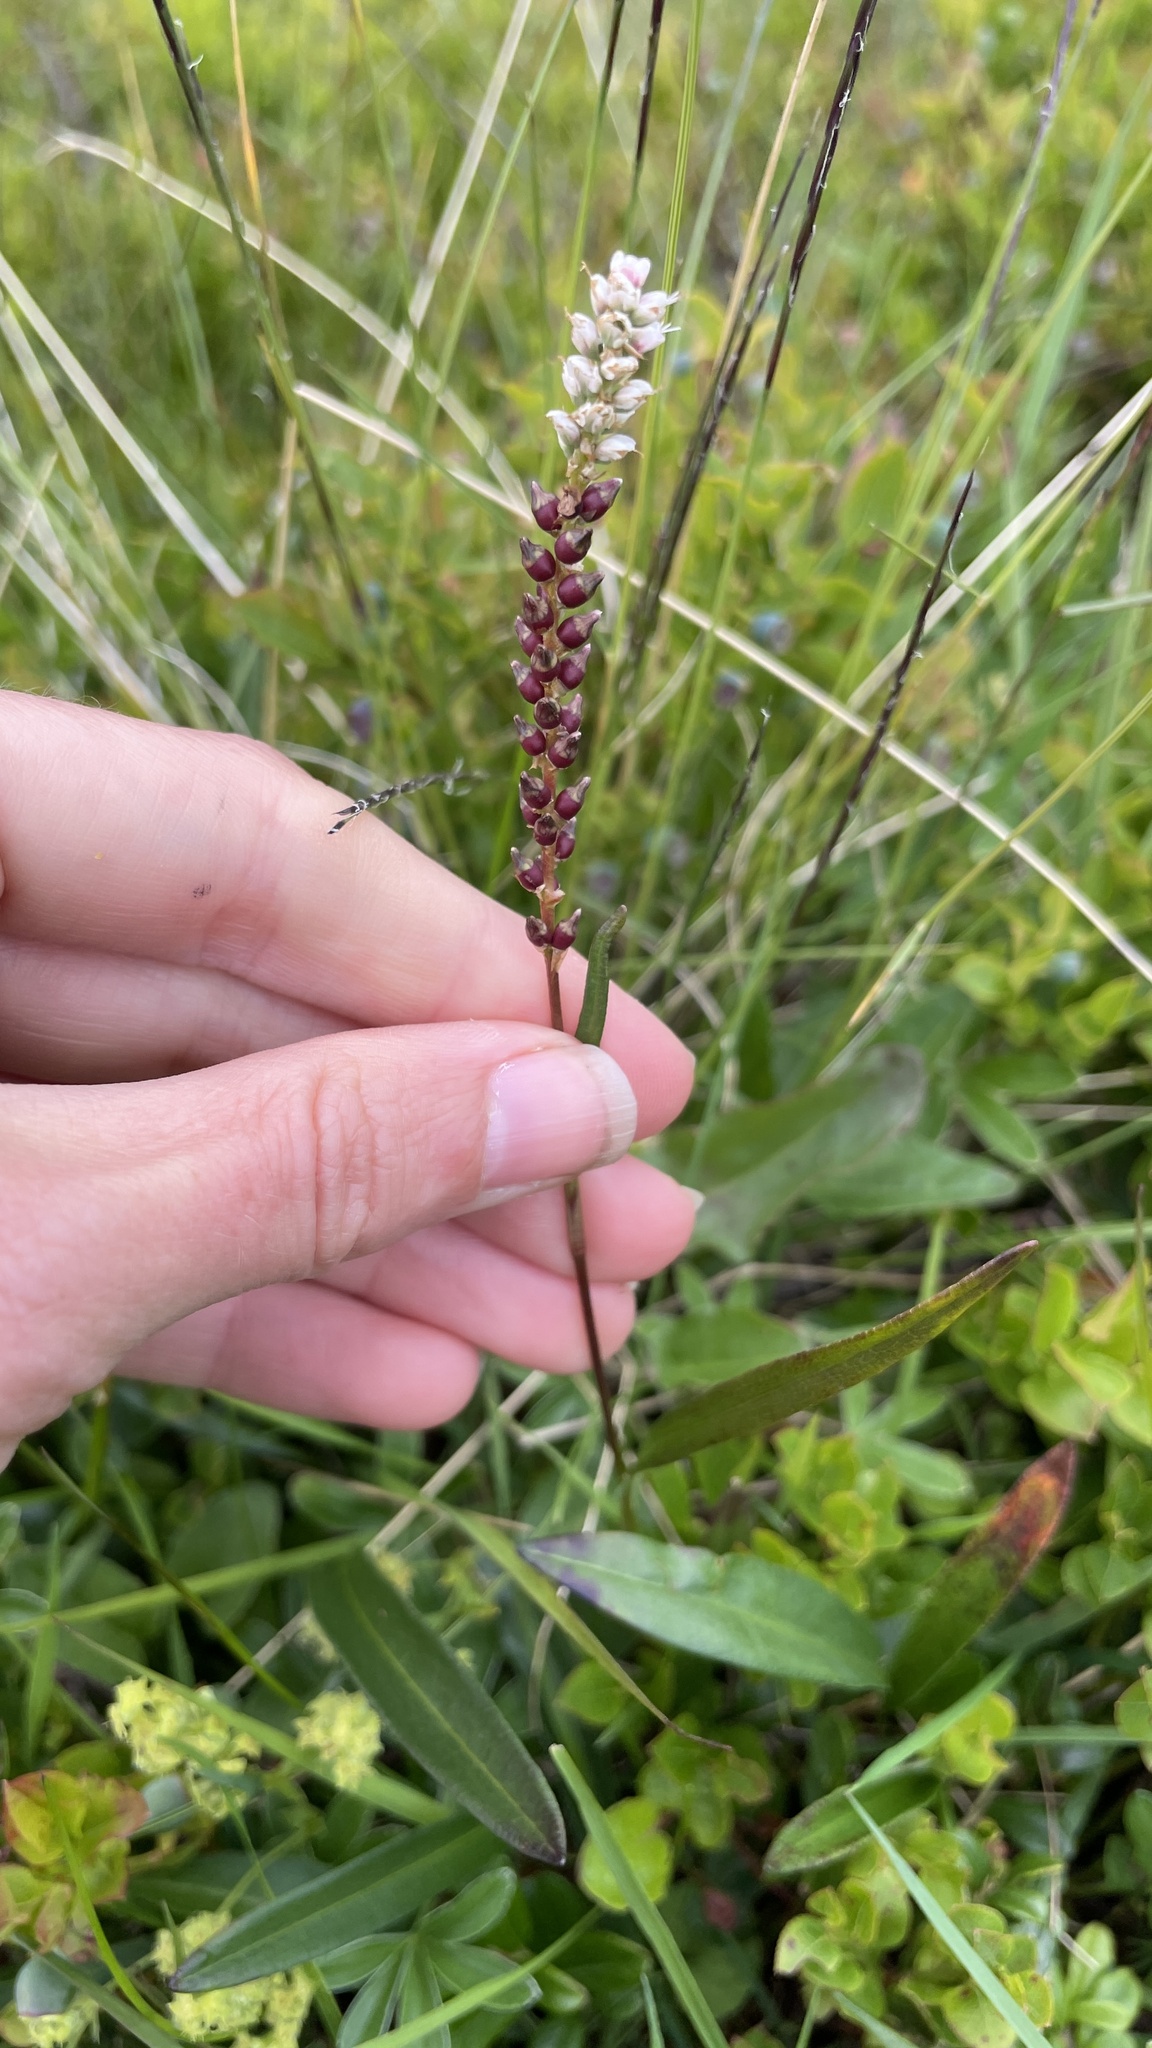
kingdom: Plantae
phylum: Tracheophyta
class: Magnoliopsida
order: Caryophyllales
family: Polygonaceae
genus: Bistorta
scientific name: Bistorta vivipara
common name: Alpine bistort
